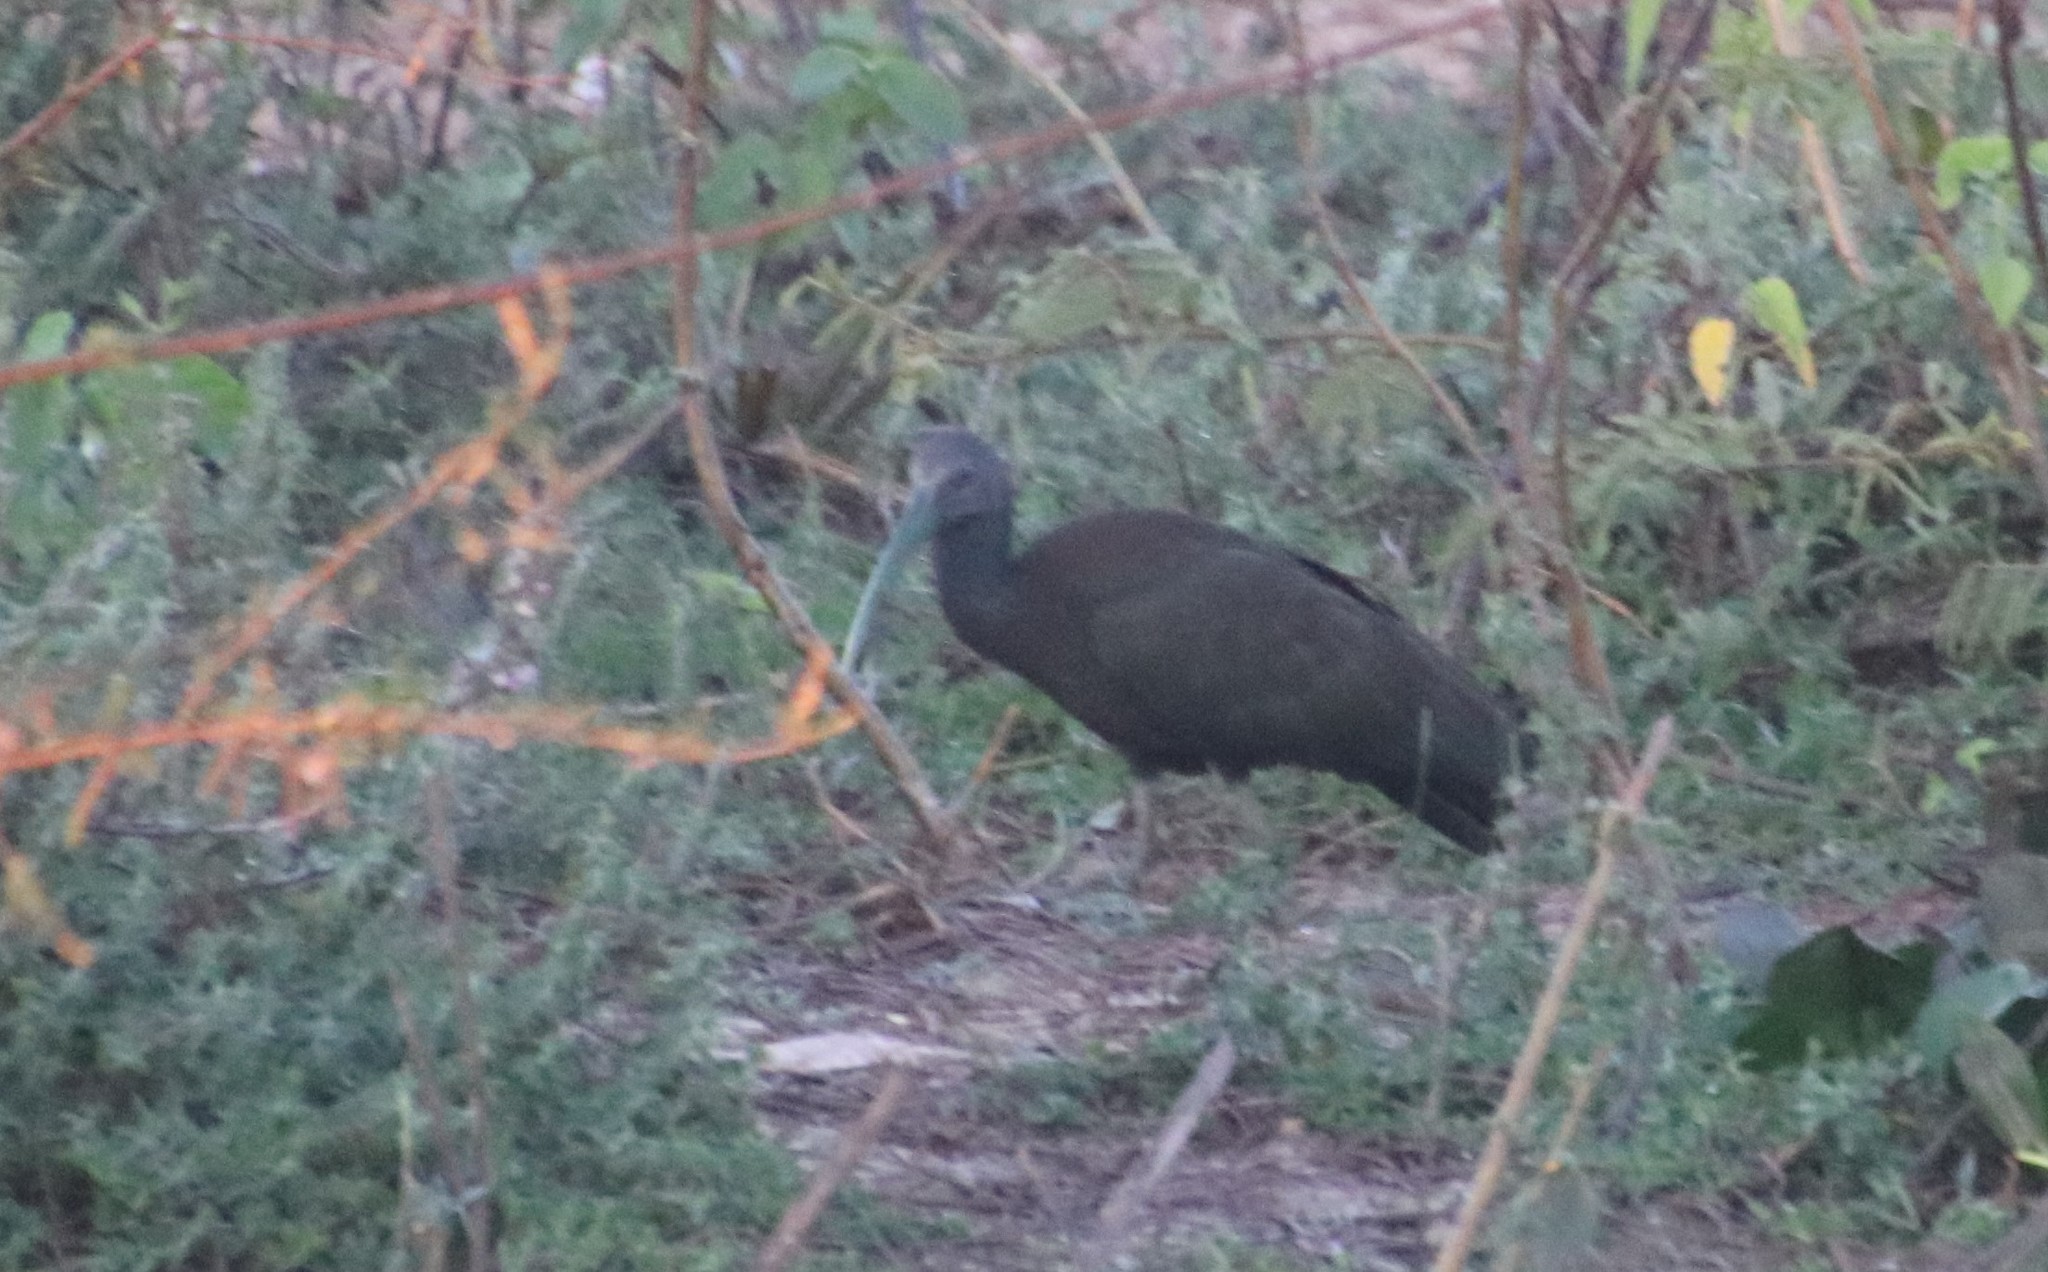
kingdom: Animalia
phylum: Chordata
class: Aves
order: Pelecaniformes
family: Threskiornithidae
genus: Mesembrinibis
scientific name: Mesembrinibis cayennensis
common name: Green ibis
